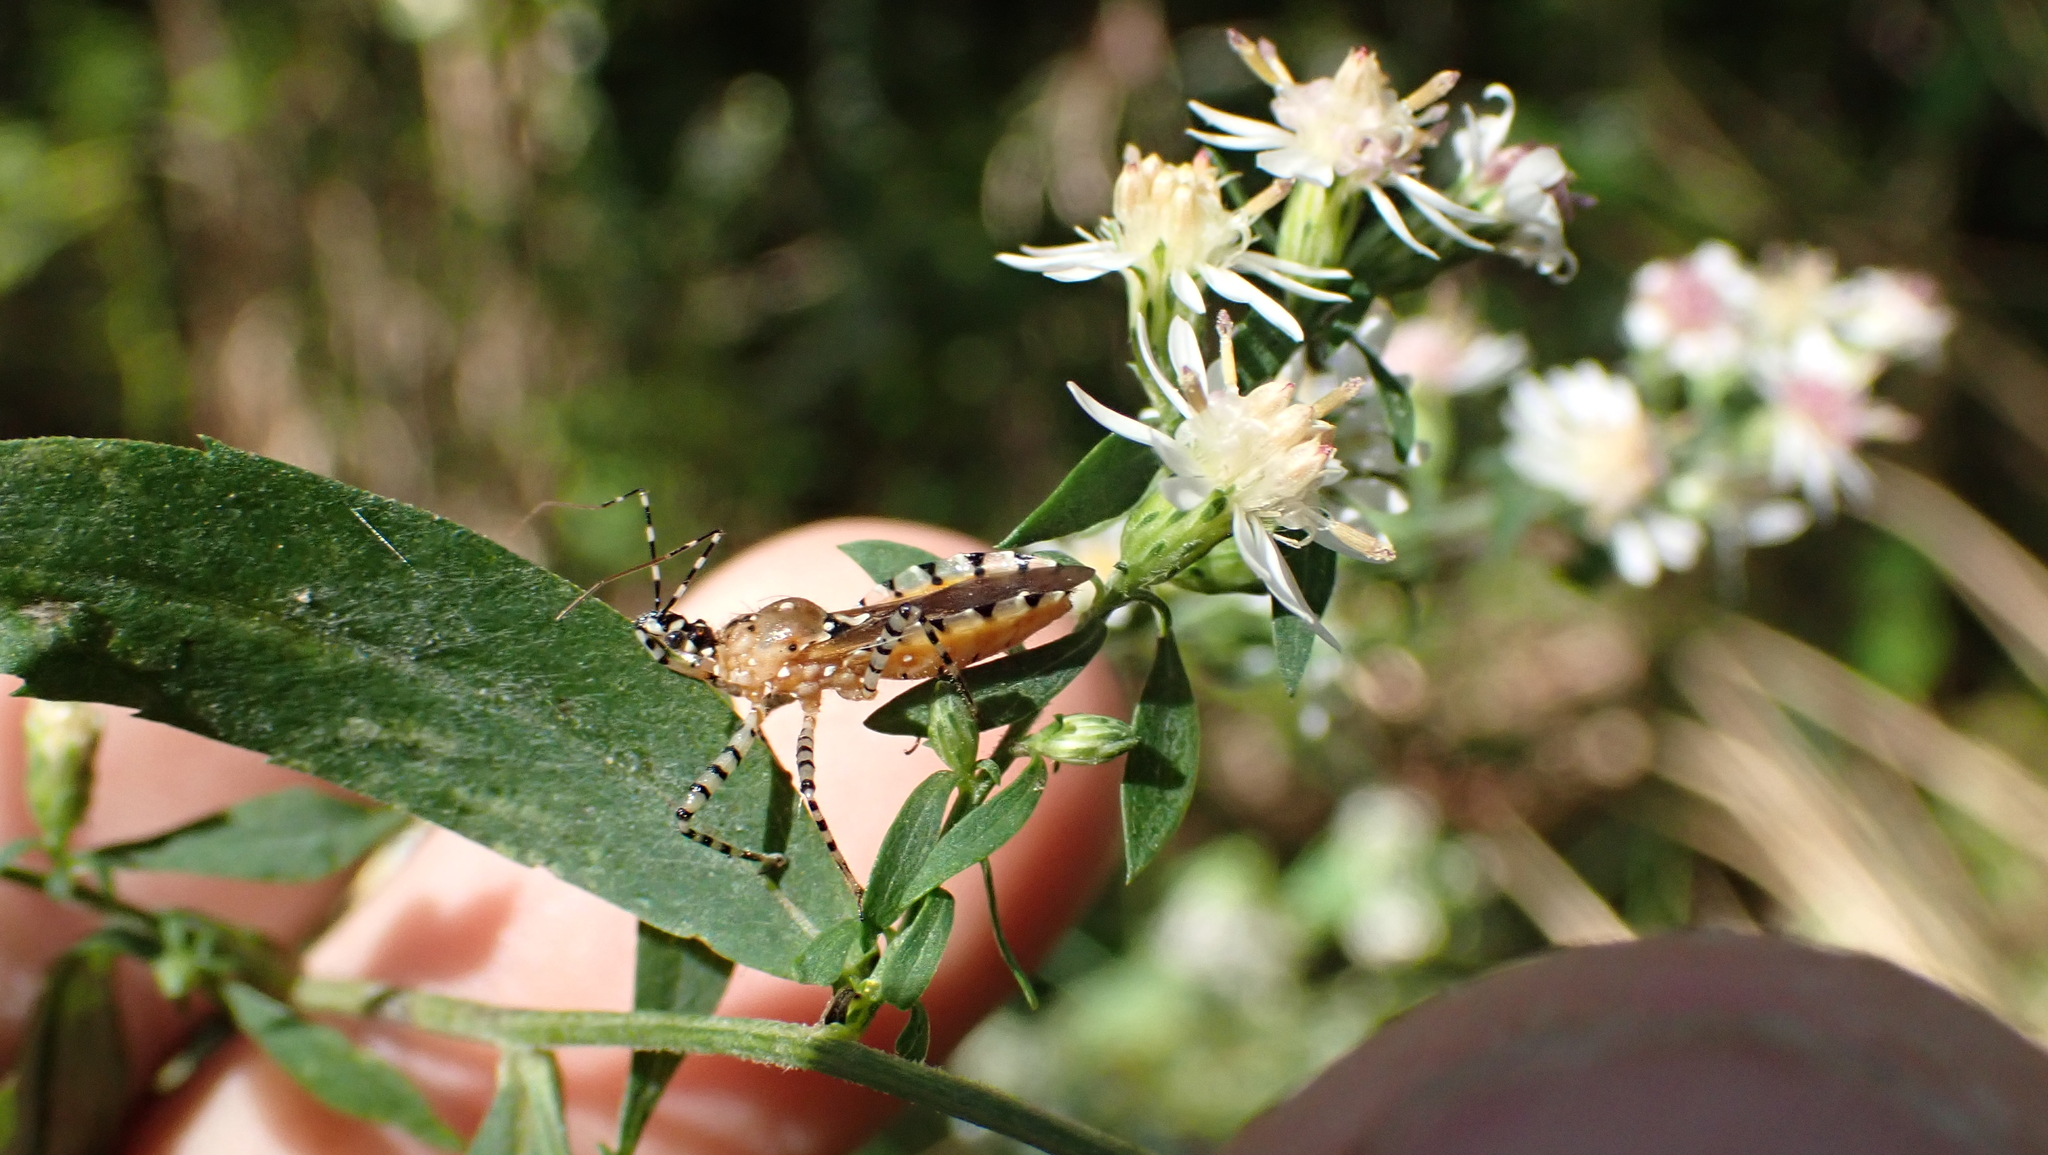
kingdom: Animalia
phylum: Arthropoda
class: Insecta
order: Hemiptera
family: Reduviidae
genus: Pselliopus
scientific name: Pselliopus cinctus
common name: Ringed assassin bug
